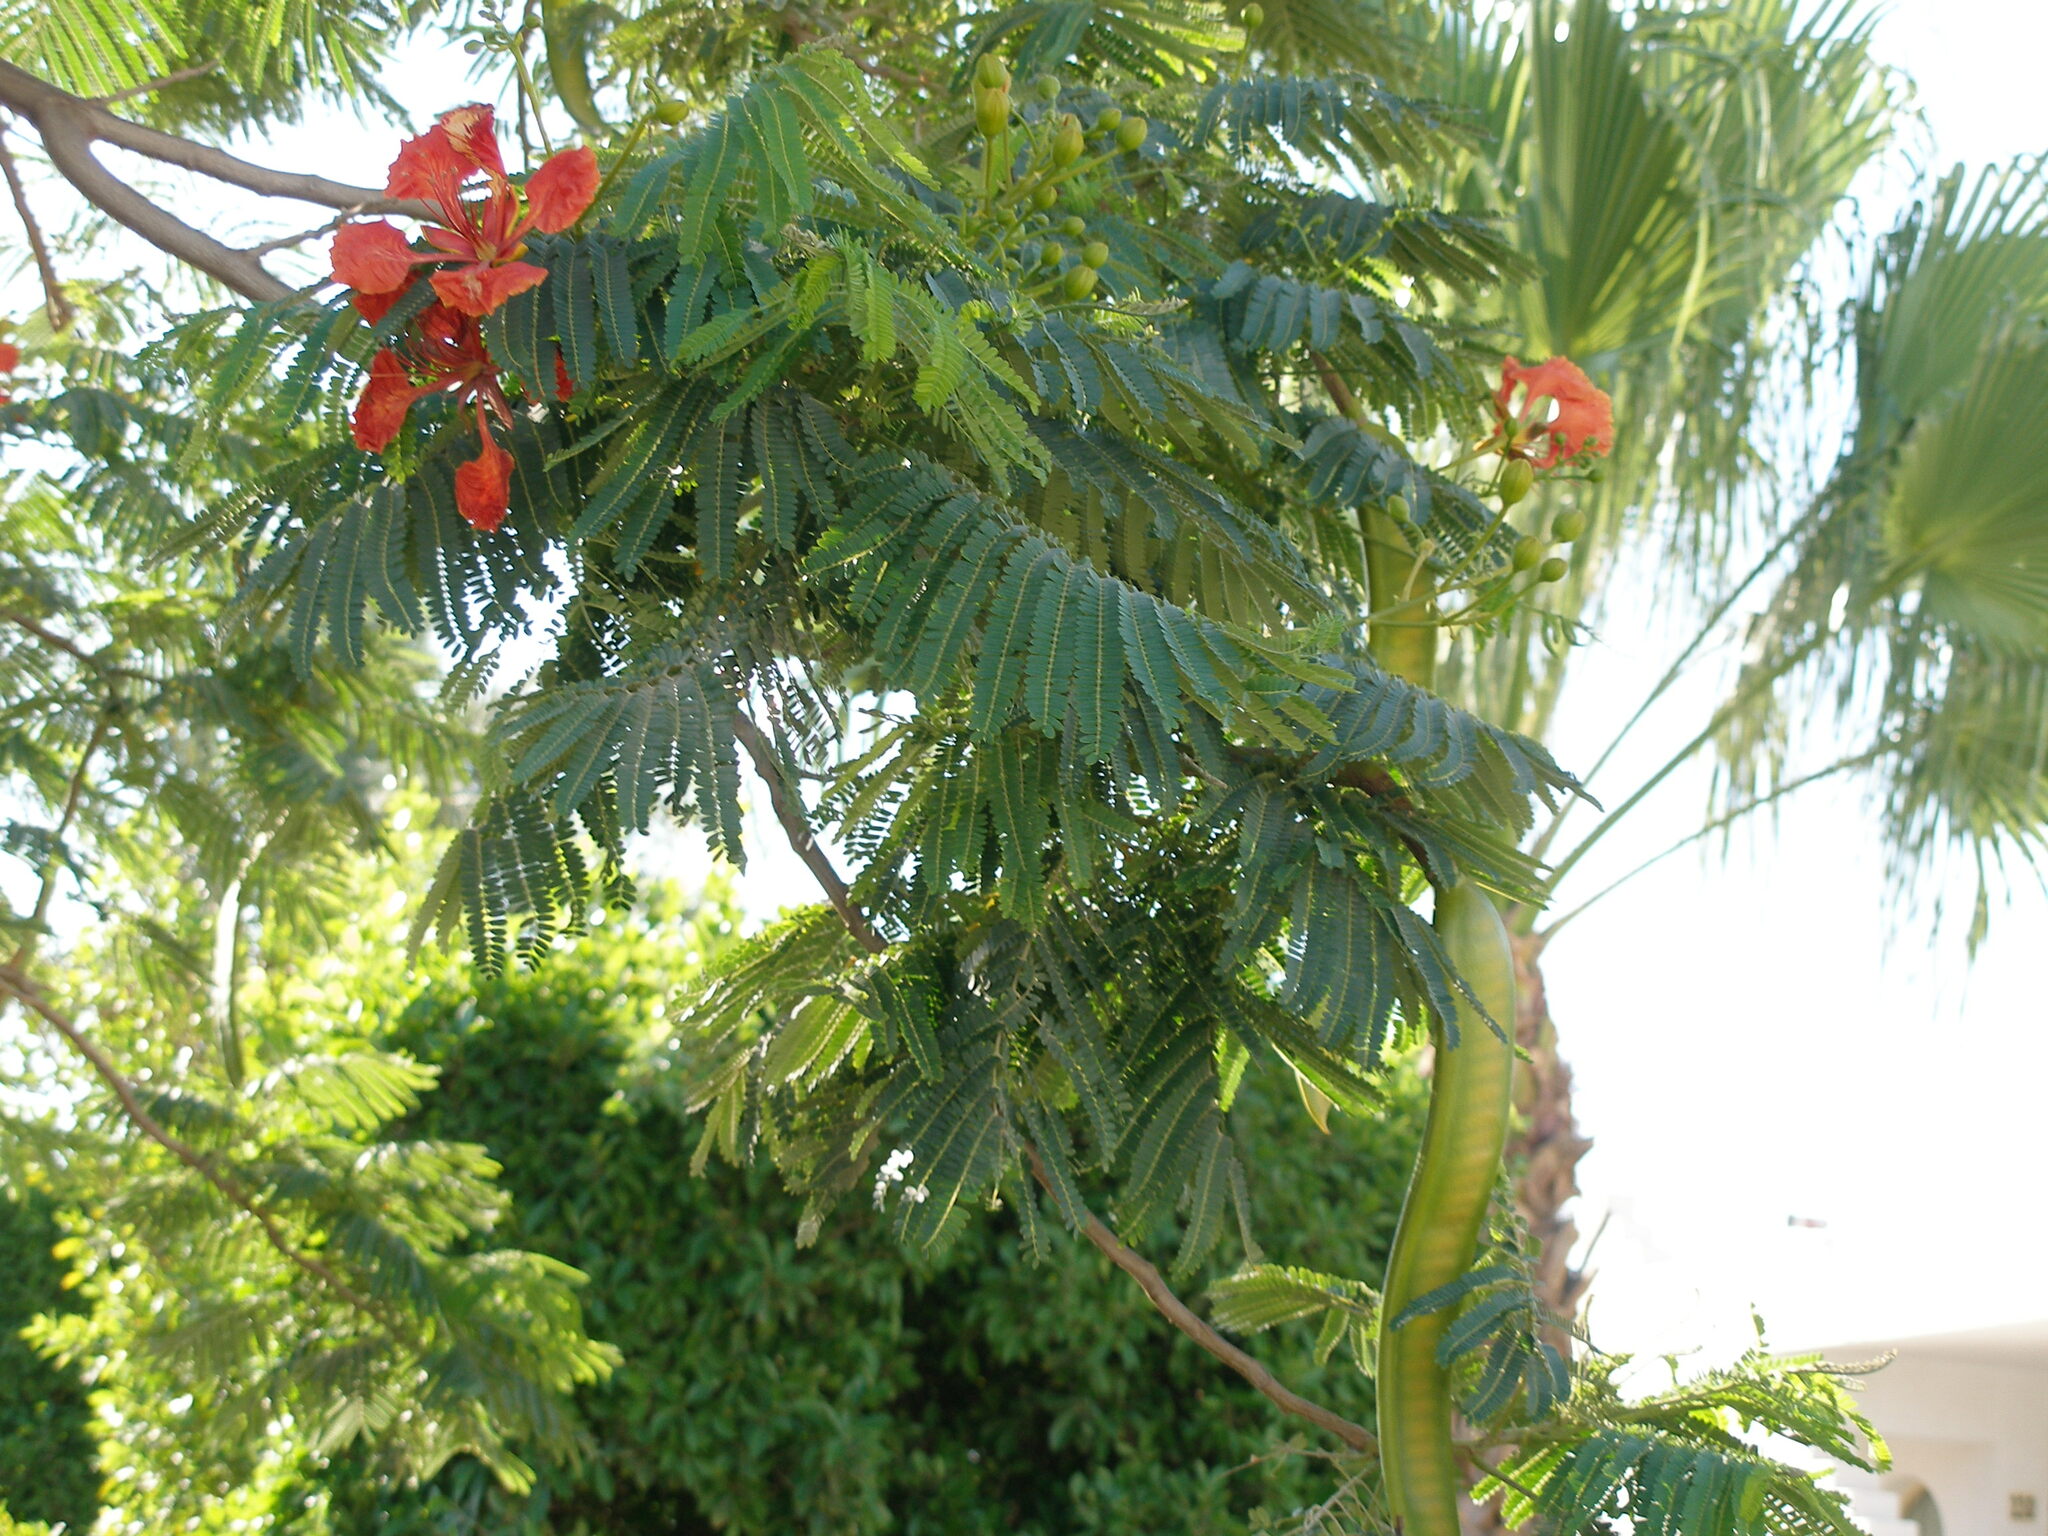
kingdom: Plantae
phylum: Tracheophyta
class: Magnoliopsida
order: Fabales
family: Fabaceae
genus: Delonix
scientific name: Delonix regia
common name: Royal poinciana
